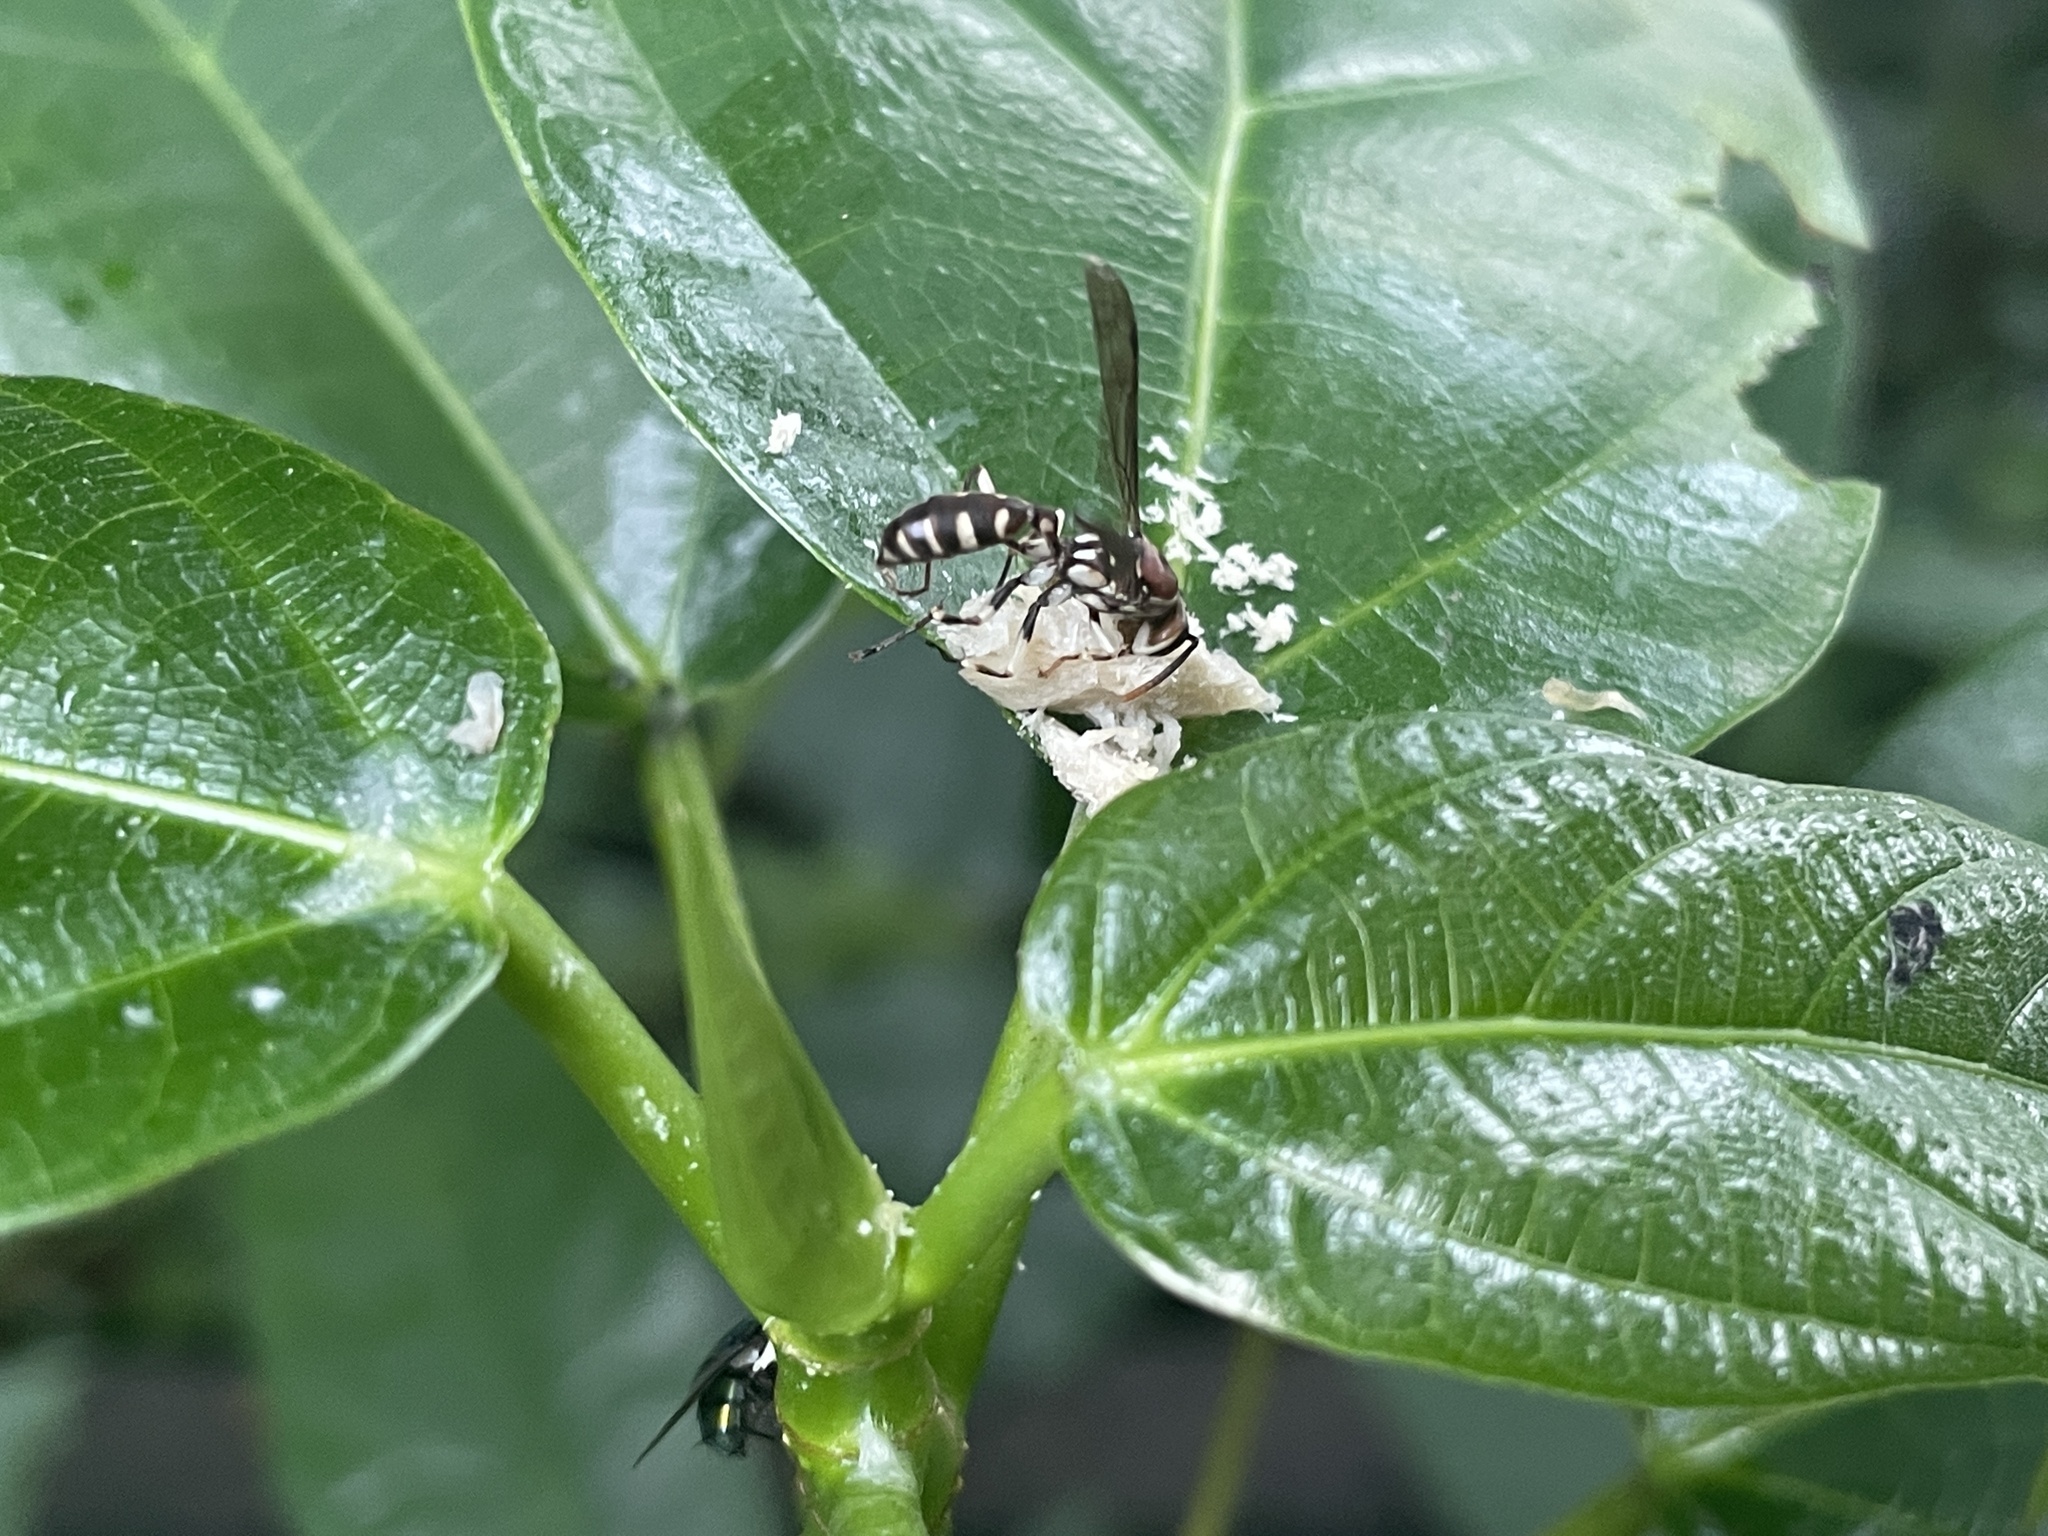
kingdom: Animalia
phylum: Arthropoda
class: Insecta
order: Hymenoptera
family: Vespidae
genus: Parapolybia
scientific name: Parapolybia nodosa
